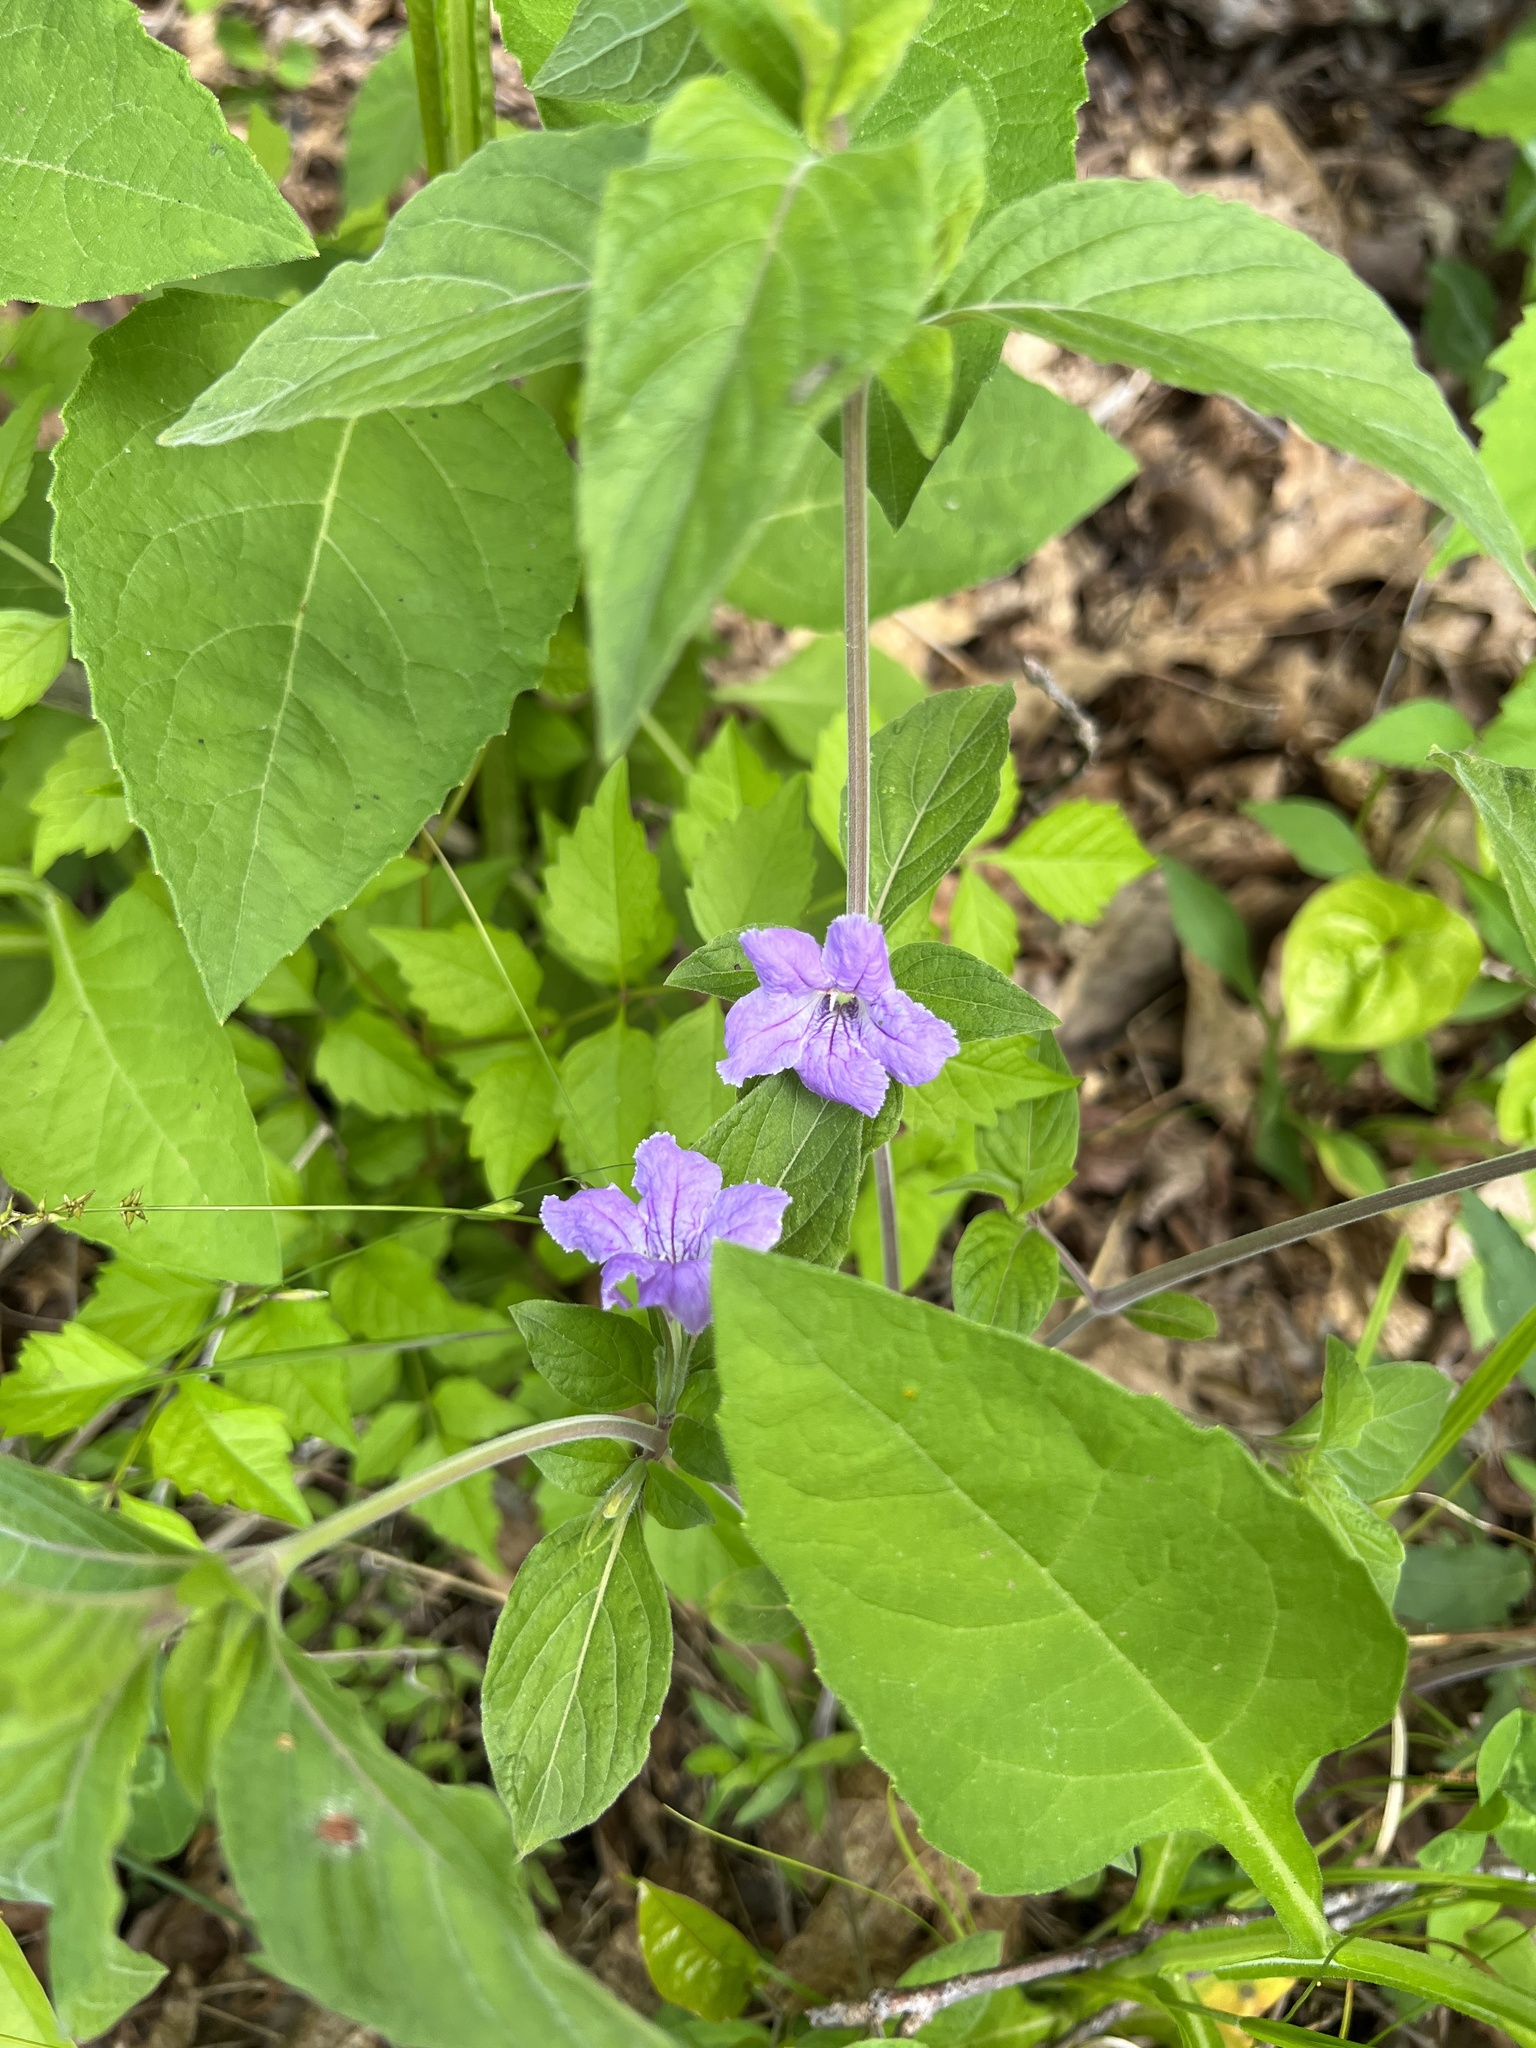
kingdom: Plantae
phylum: Tracheophyta
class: Magnoliopsida
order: Lamiales
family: Acanthaceae
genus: Ruellia
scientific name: Ruellia purshiana
